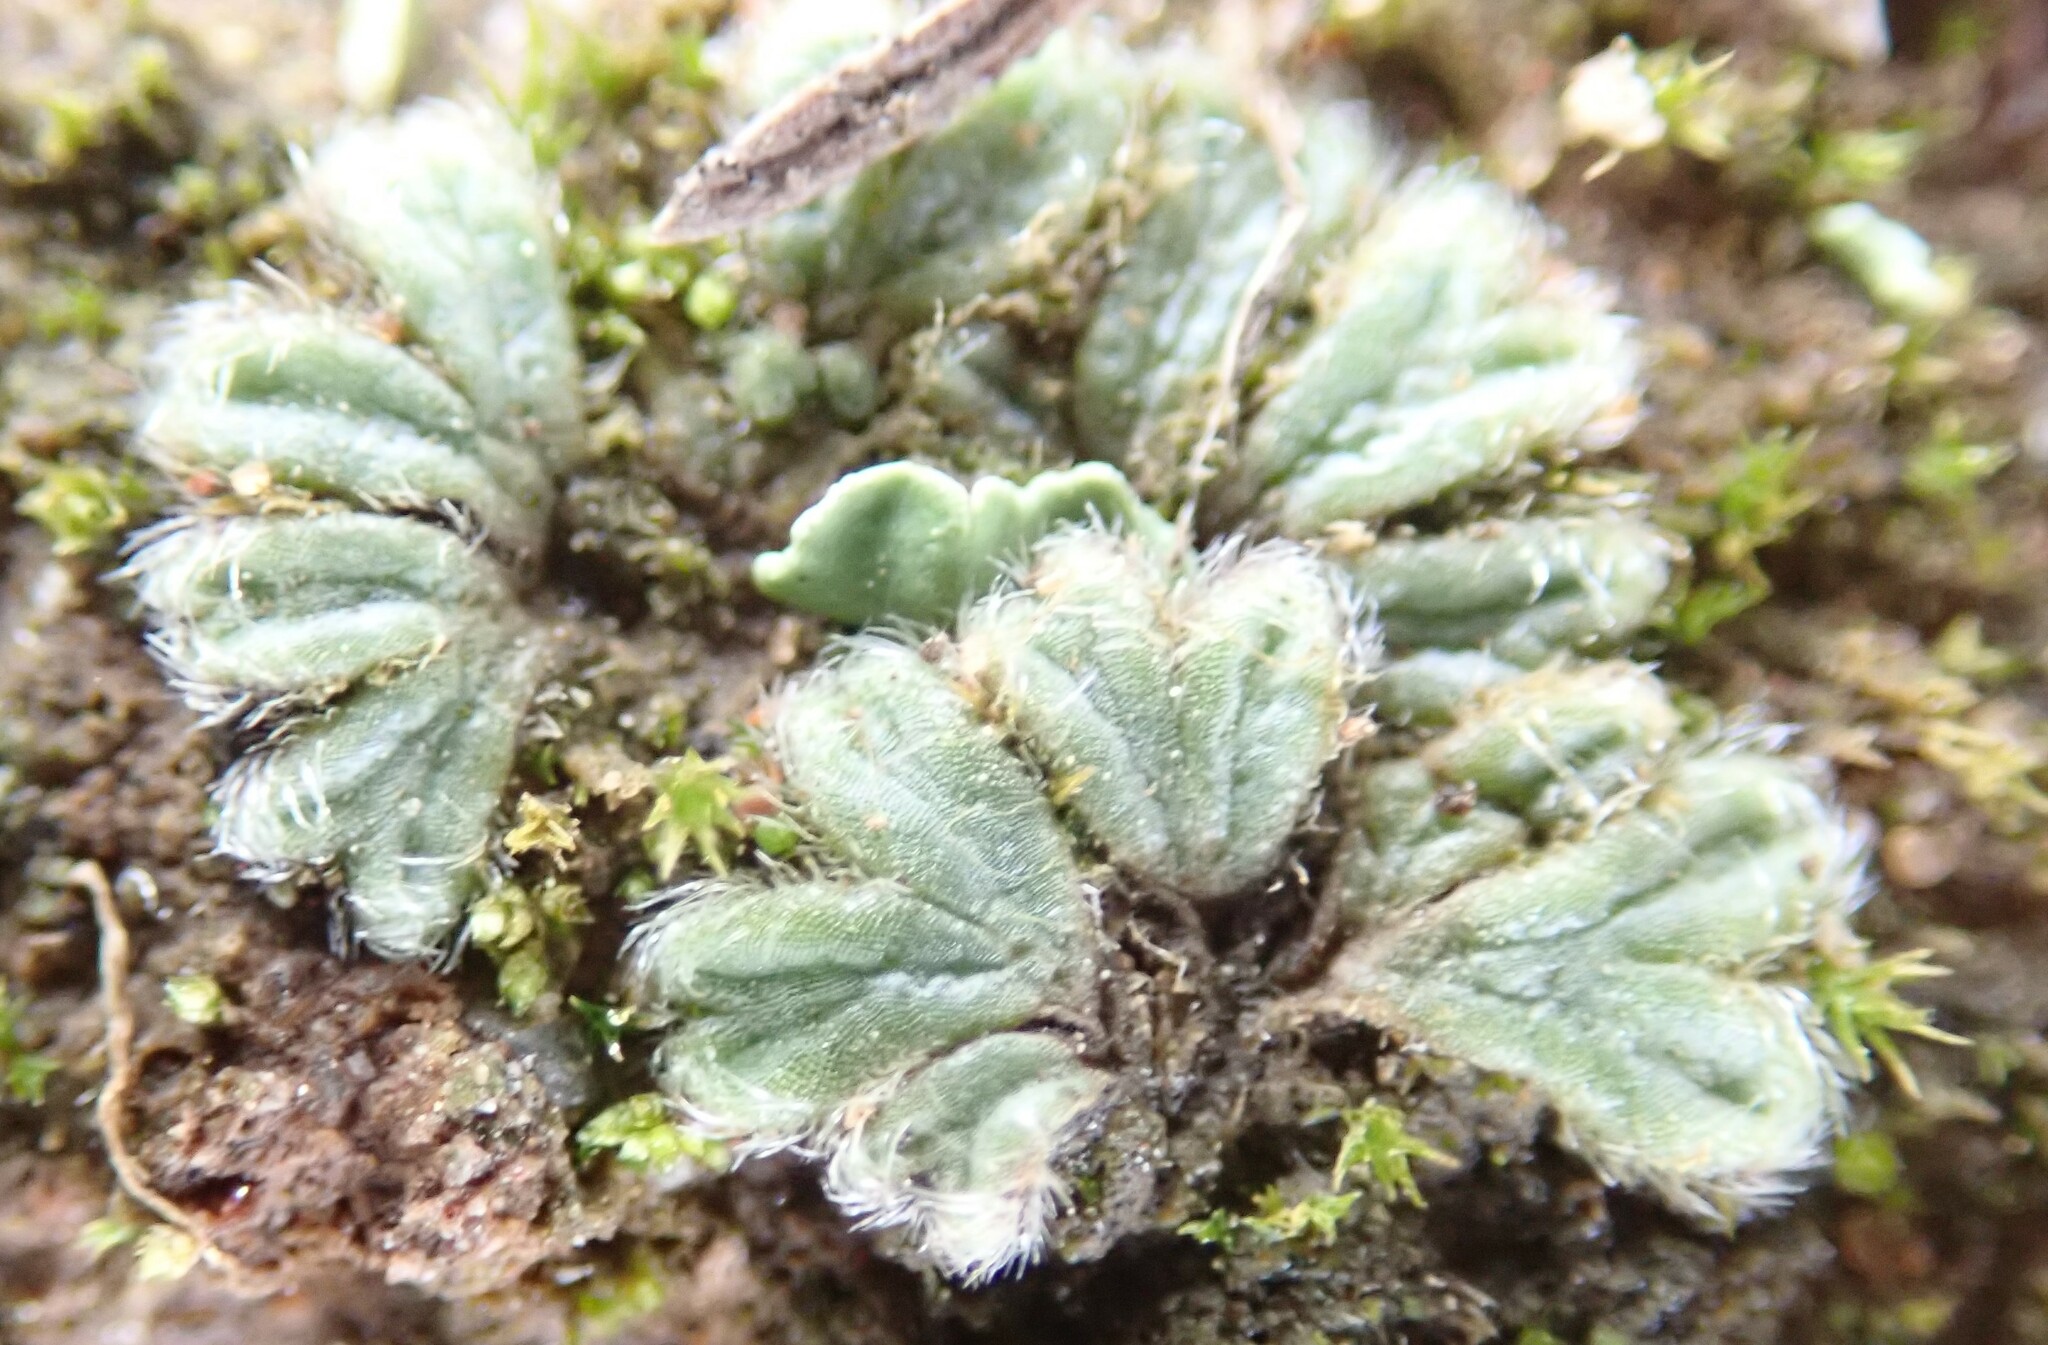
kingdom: Plantae
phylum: Marchantiophyta
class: Marchantiopsida
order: Marchantiales
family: Ricciaceae
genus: Riccia
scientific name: Riccia trichocarpa
